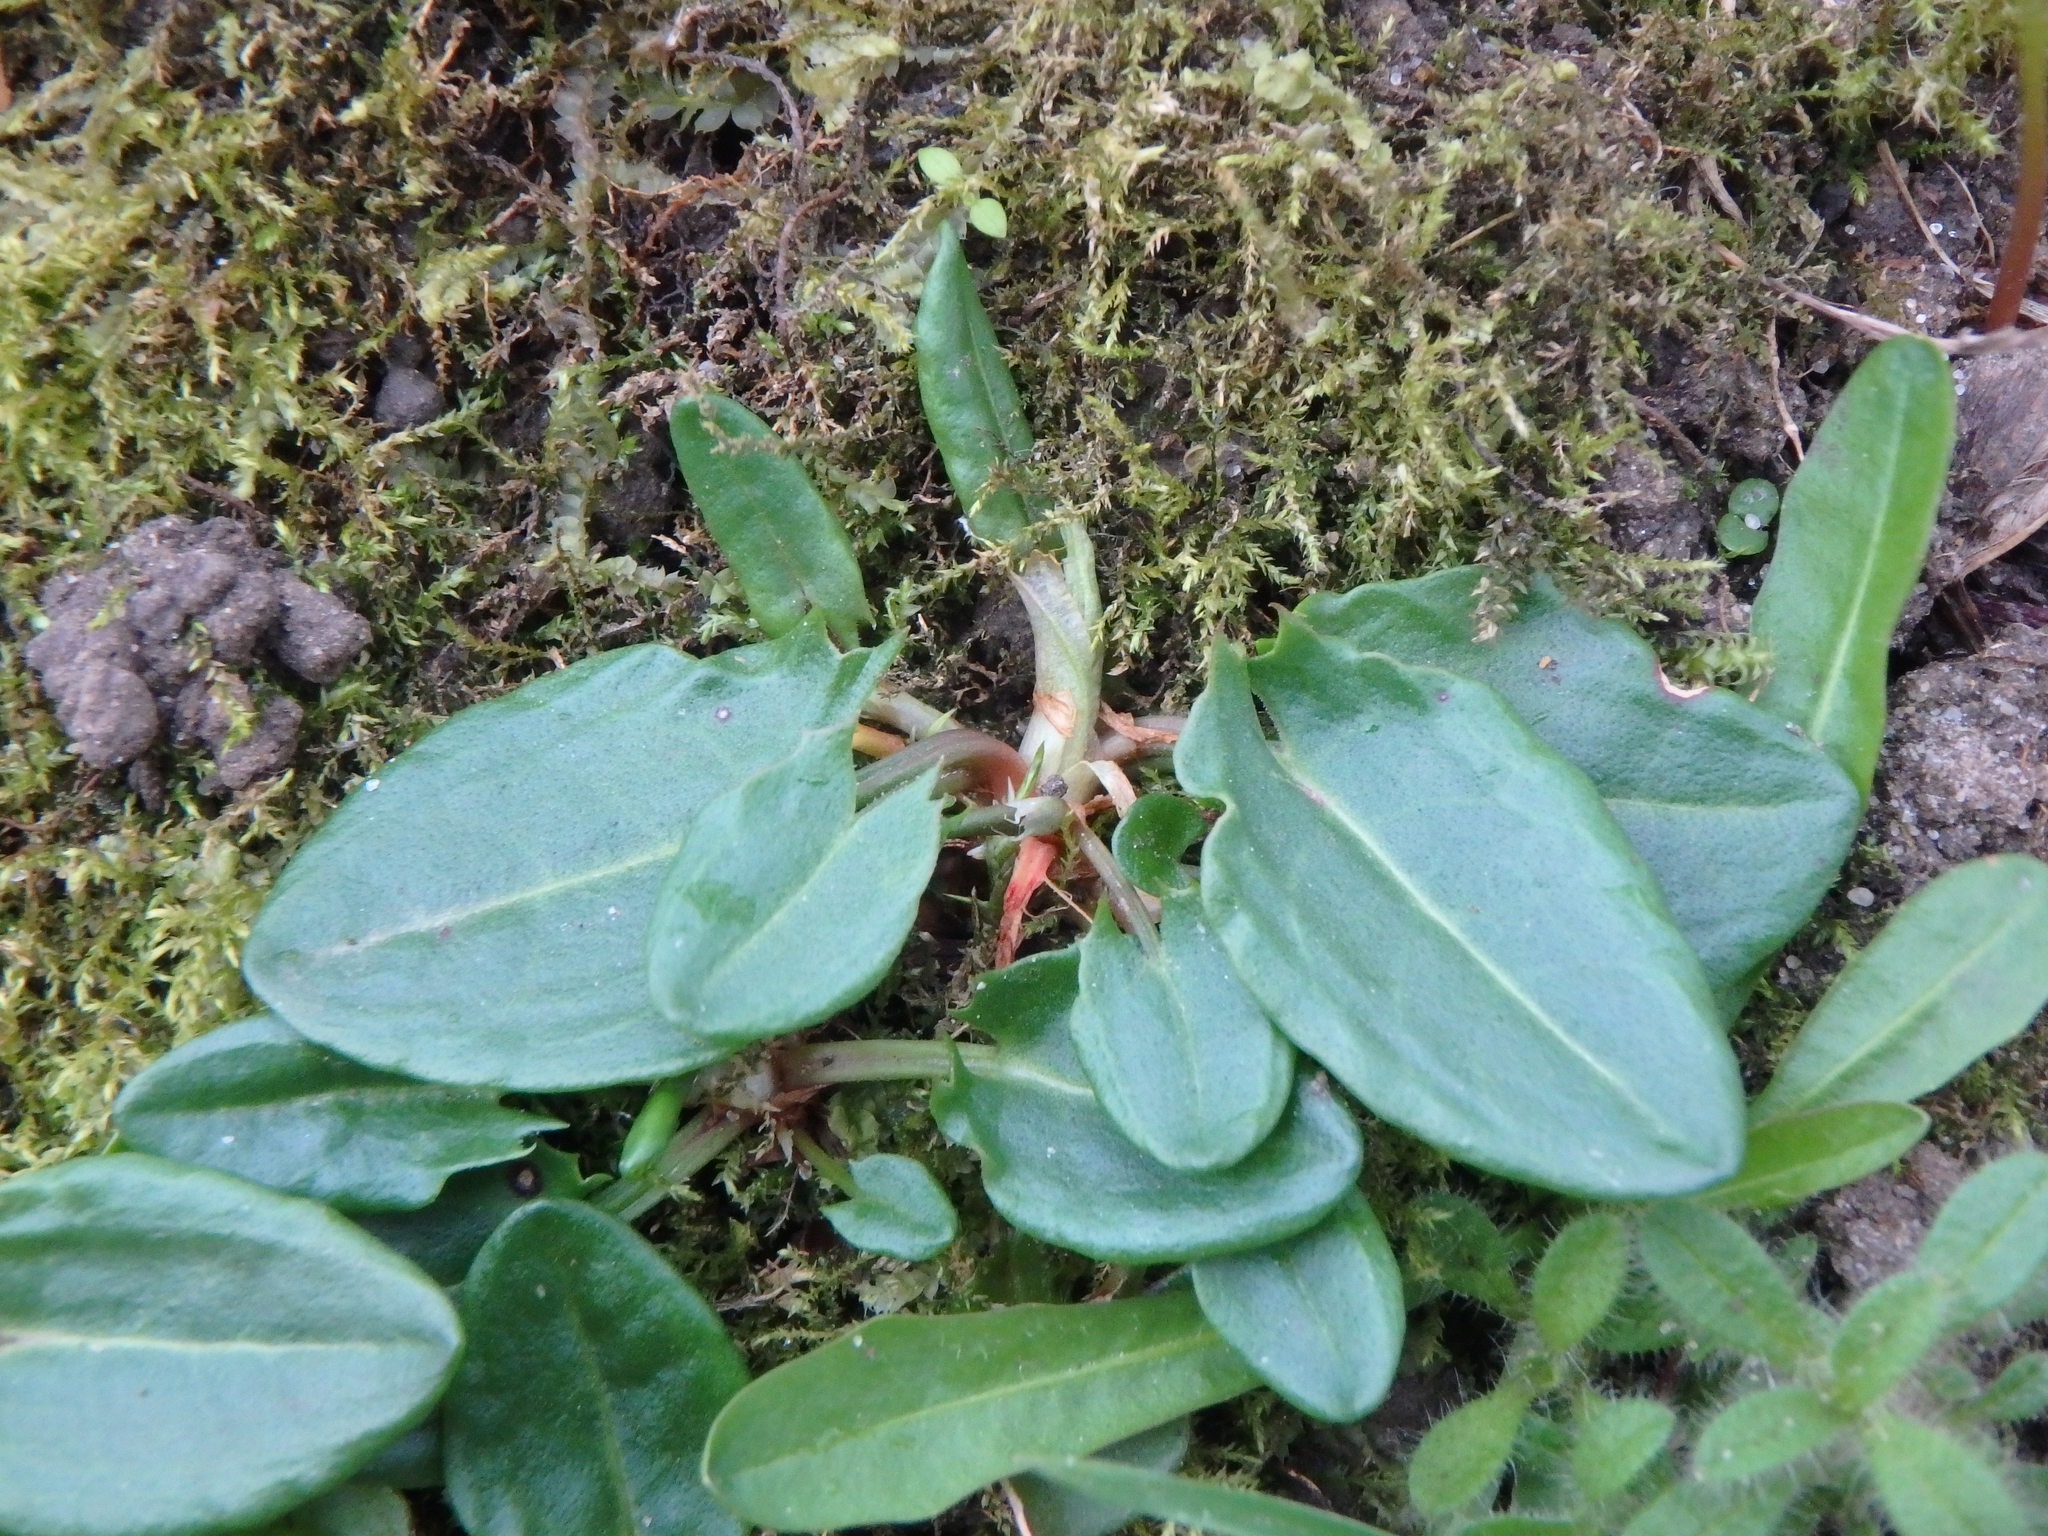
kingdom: Plantae
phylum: Tracheophyta
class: Magnoliopsida
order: Caryophyllales
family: Polygonaceae
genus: Rumex
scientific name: Rumex acetosa
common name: Garden sorrel
